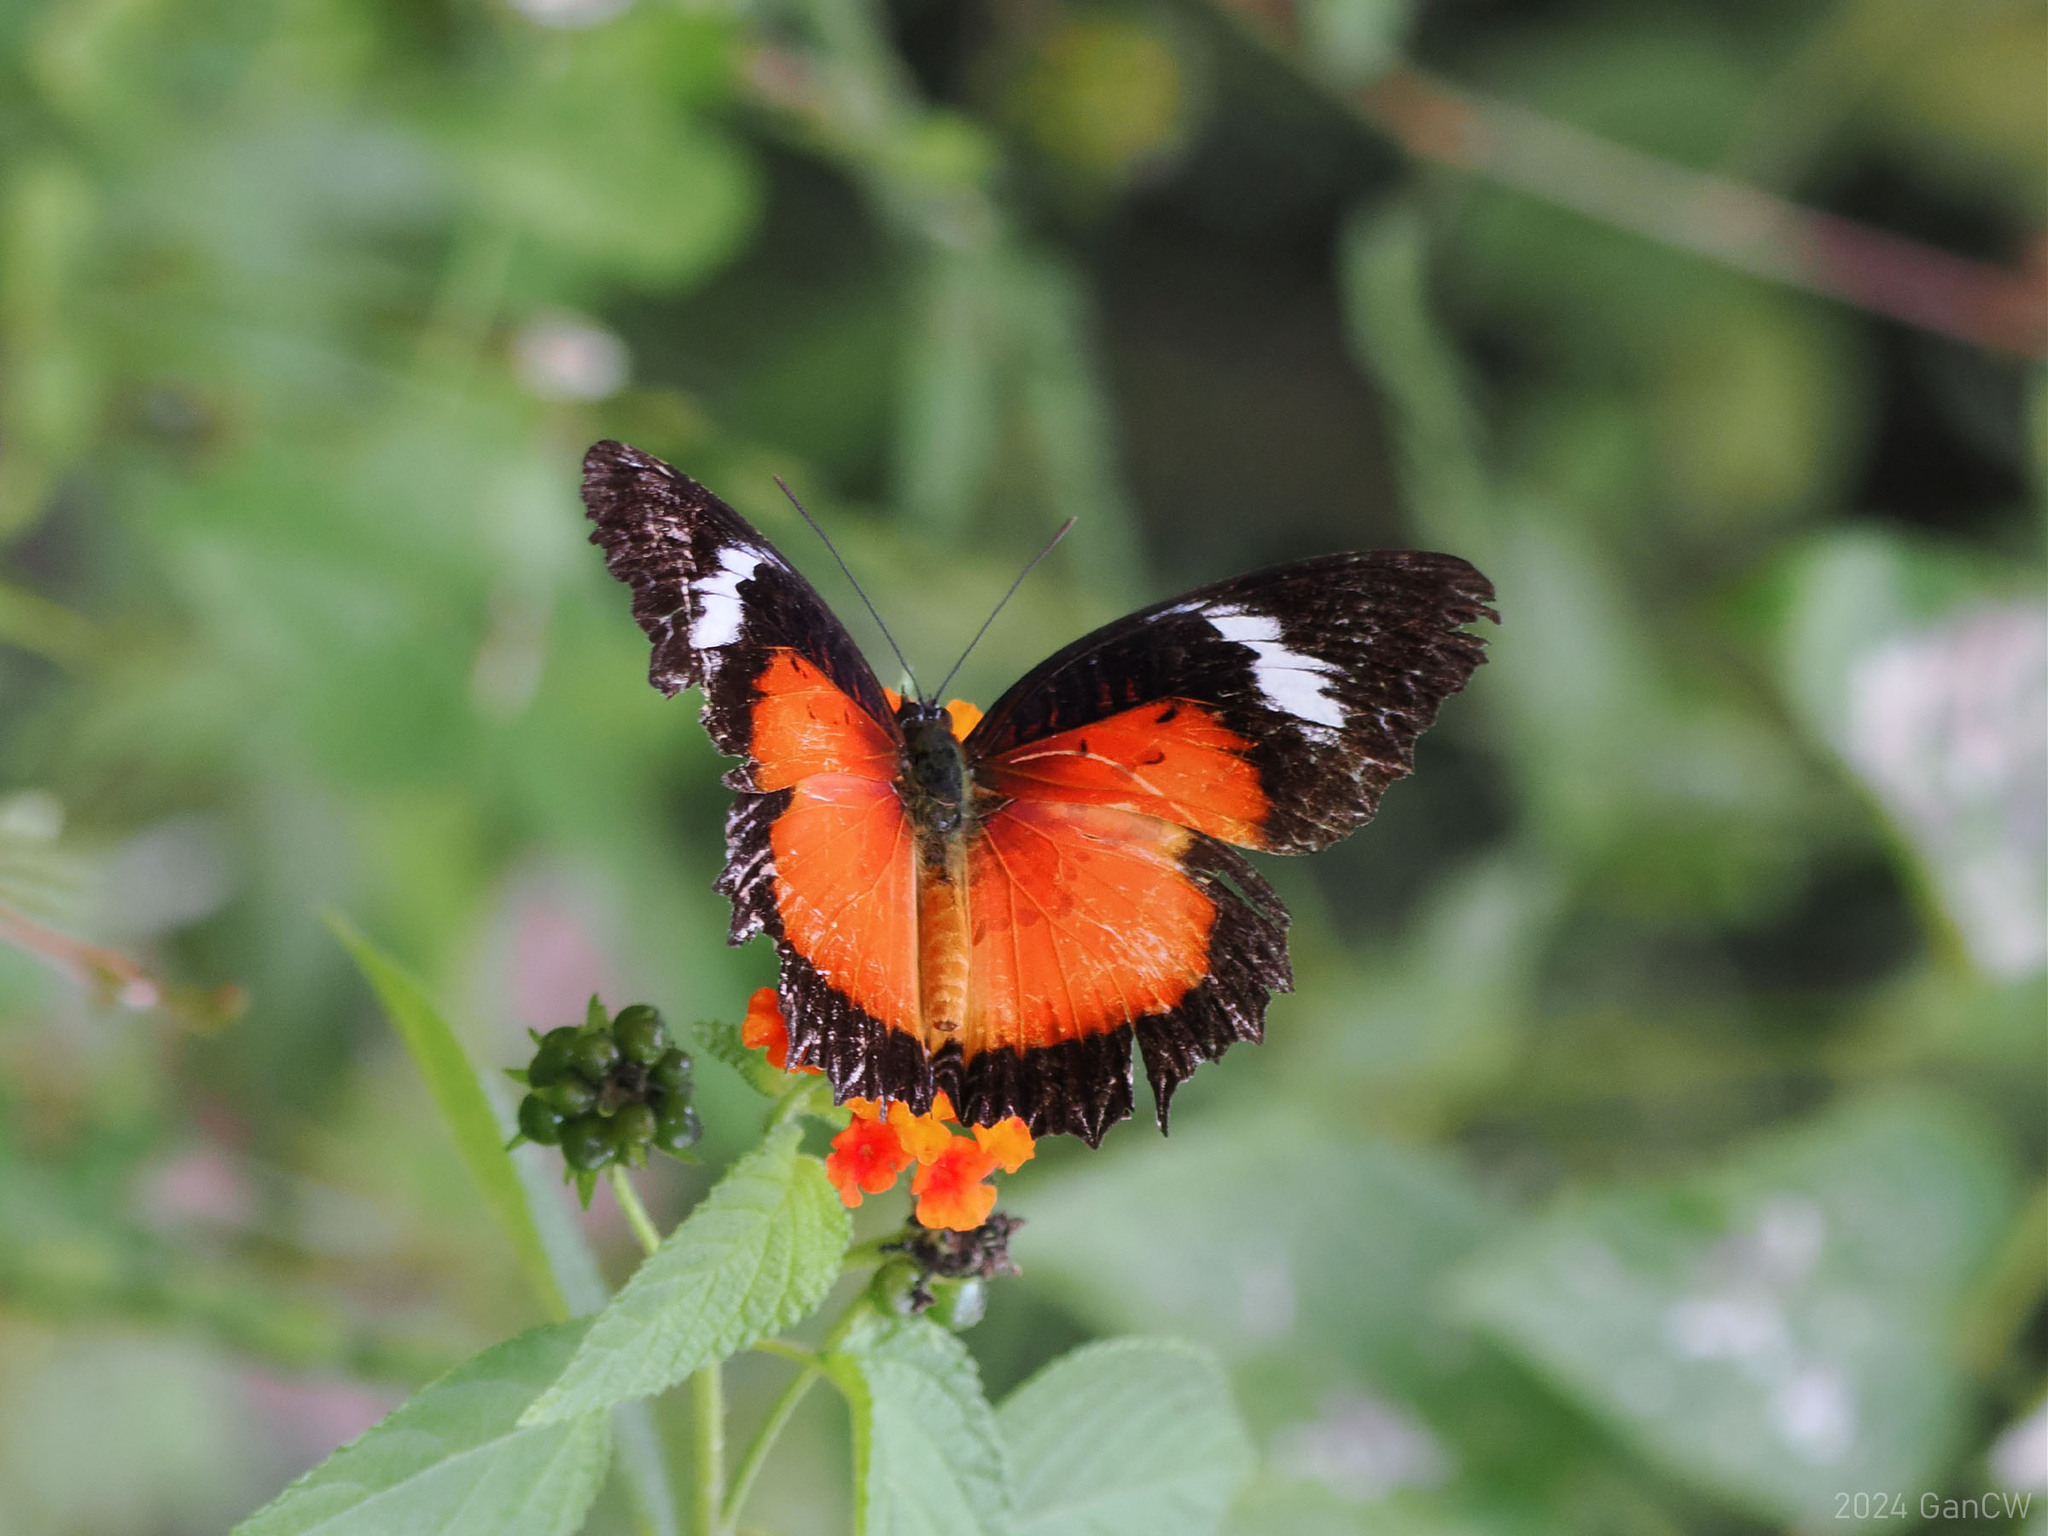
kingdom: Animalia
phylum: Arthropoda
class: Insecta
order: Lepidoptera
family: Nymphalidae
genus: Cethosia
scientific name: Cethosia luzonica
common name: Luzon lacewing
